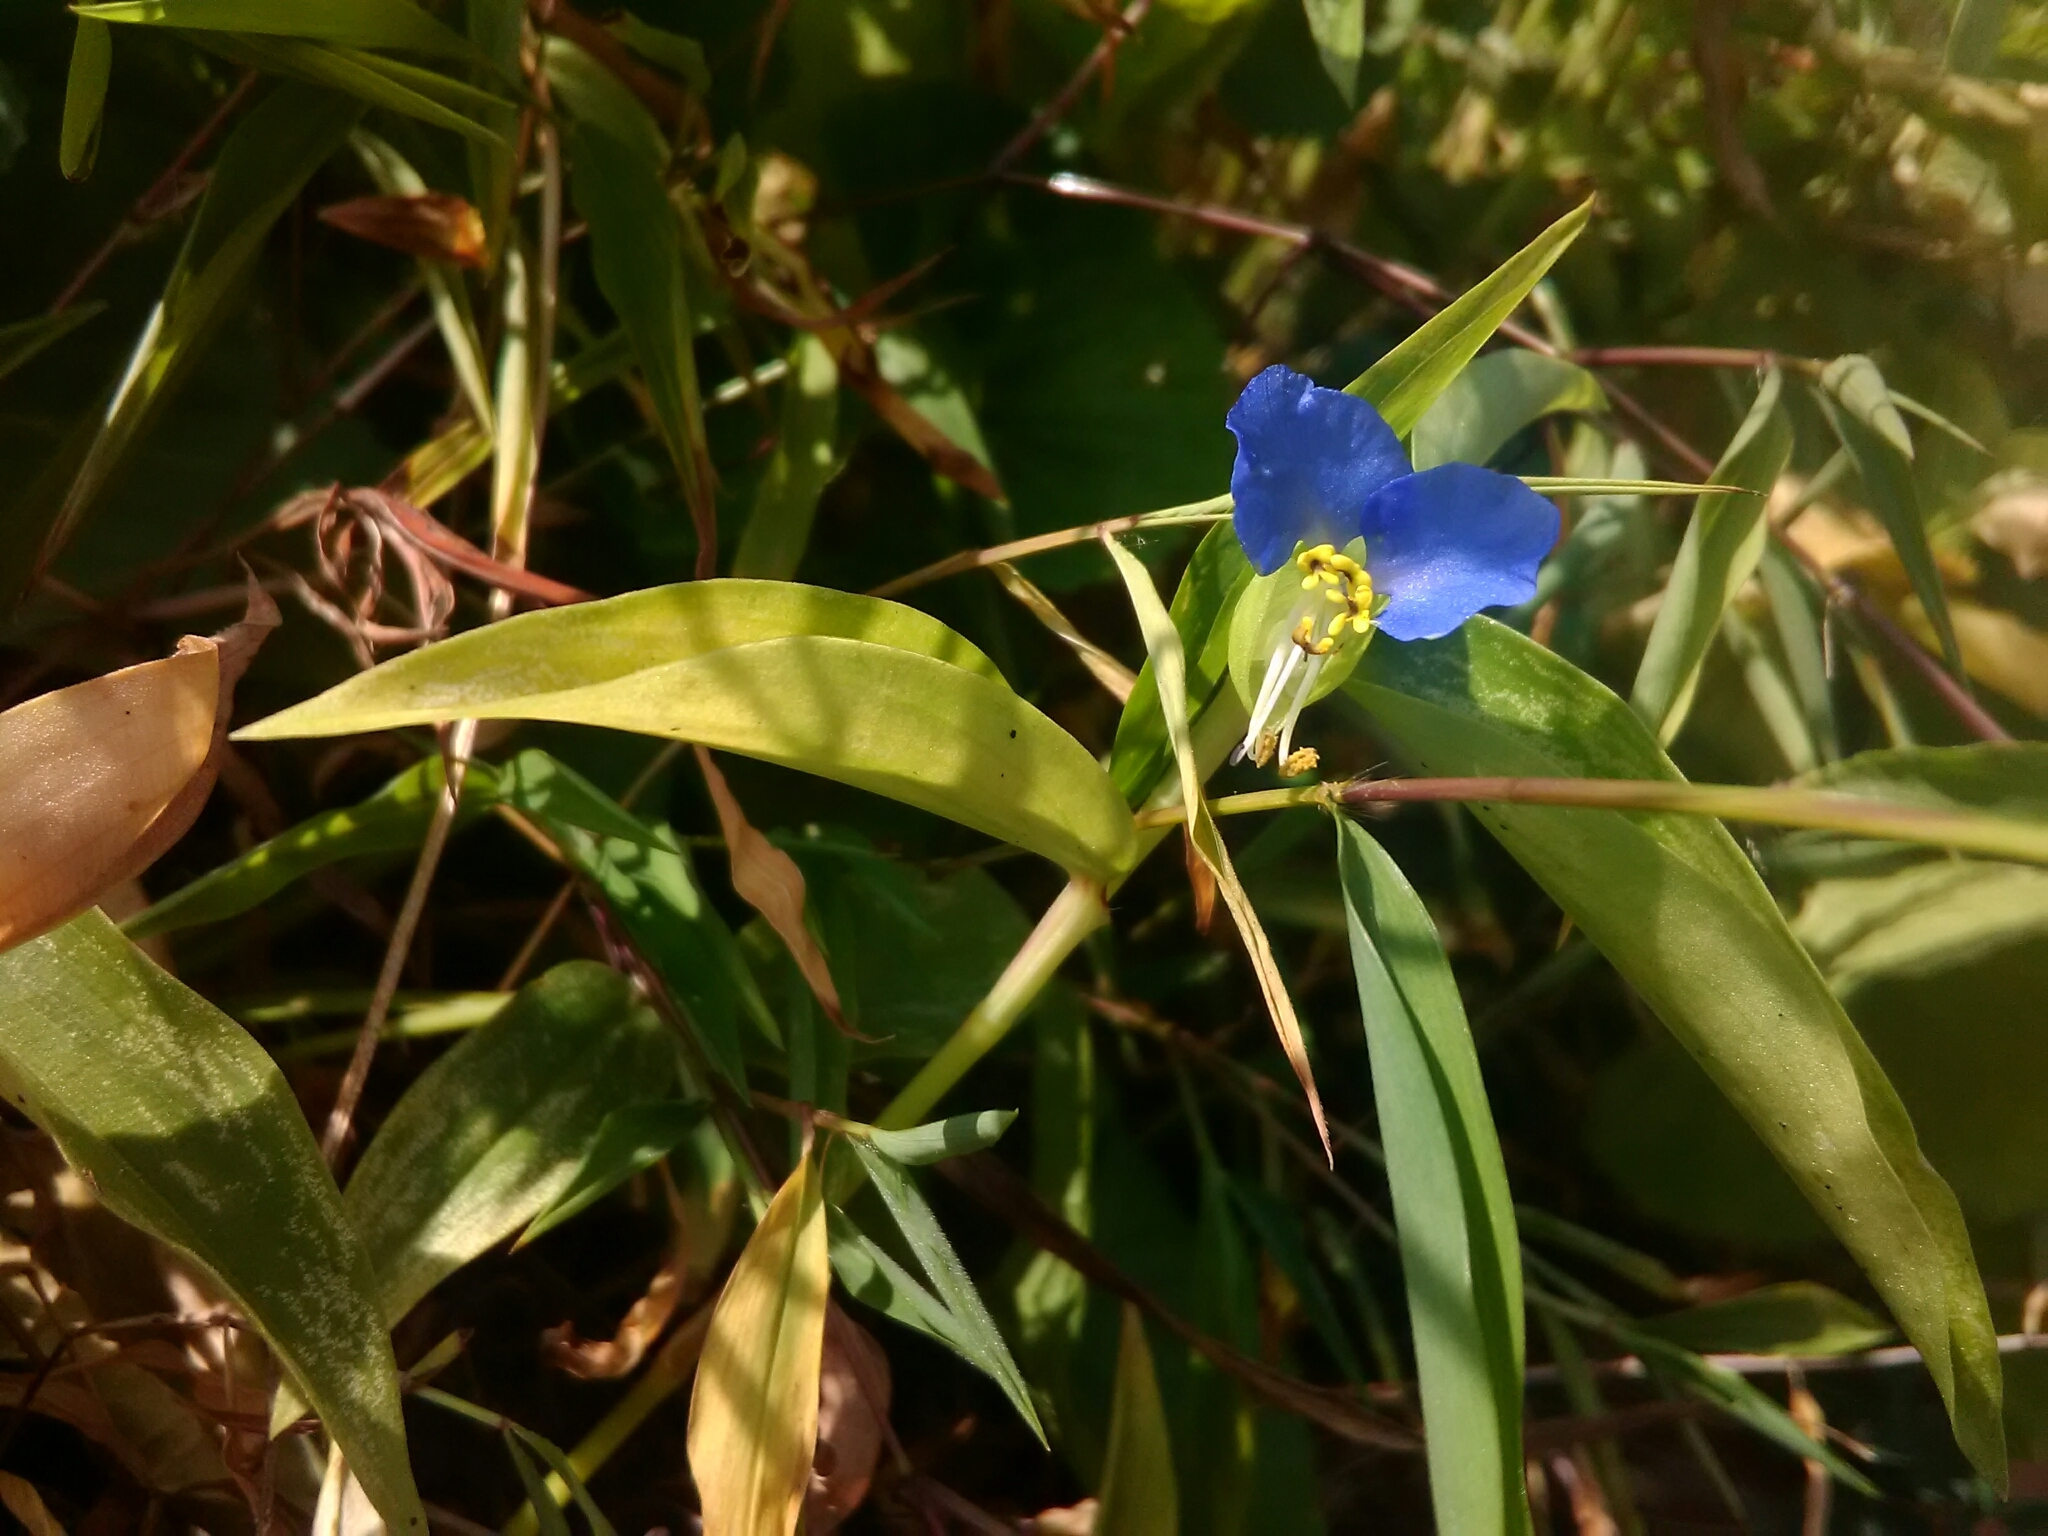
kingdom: Plantae
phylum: Tracheophyta
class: Liliopsida
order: Commelinales
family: Commelinaceae
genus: Commelina
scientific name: Commelina communis
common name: Asiatic dayflower
